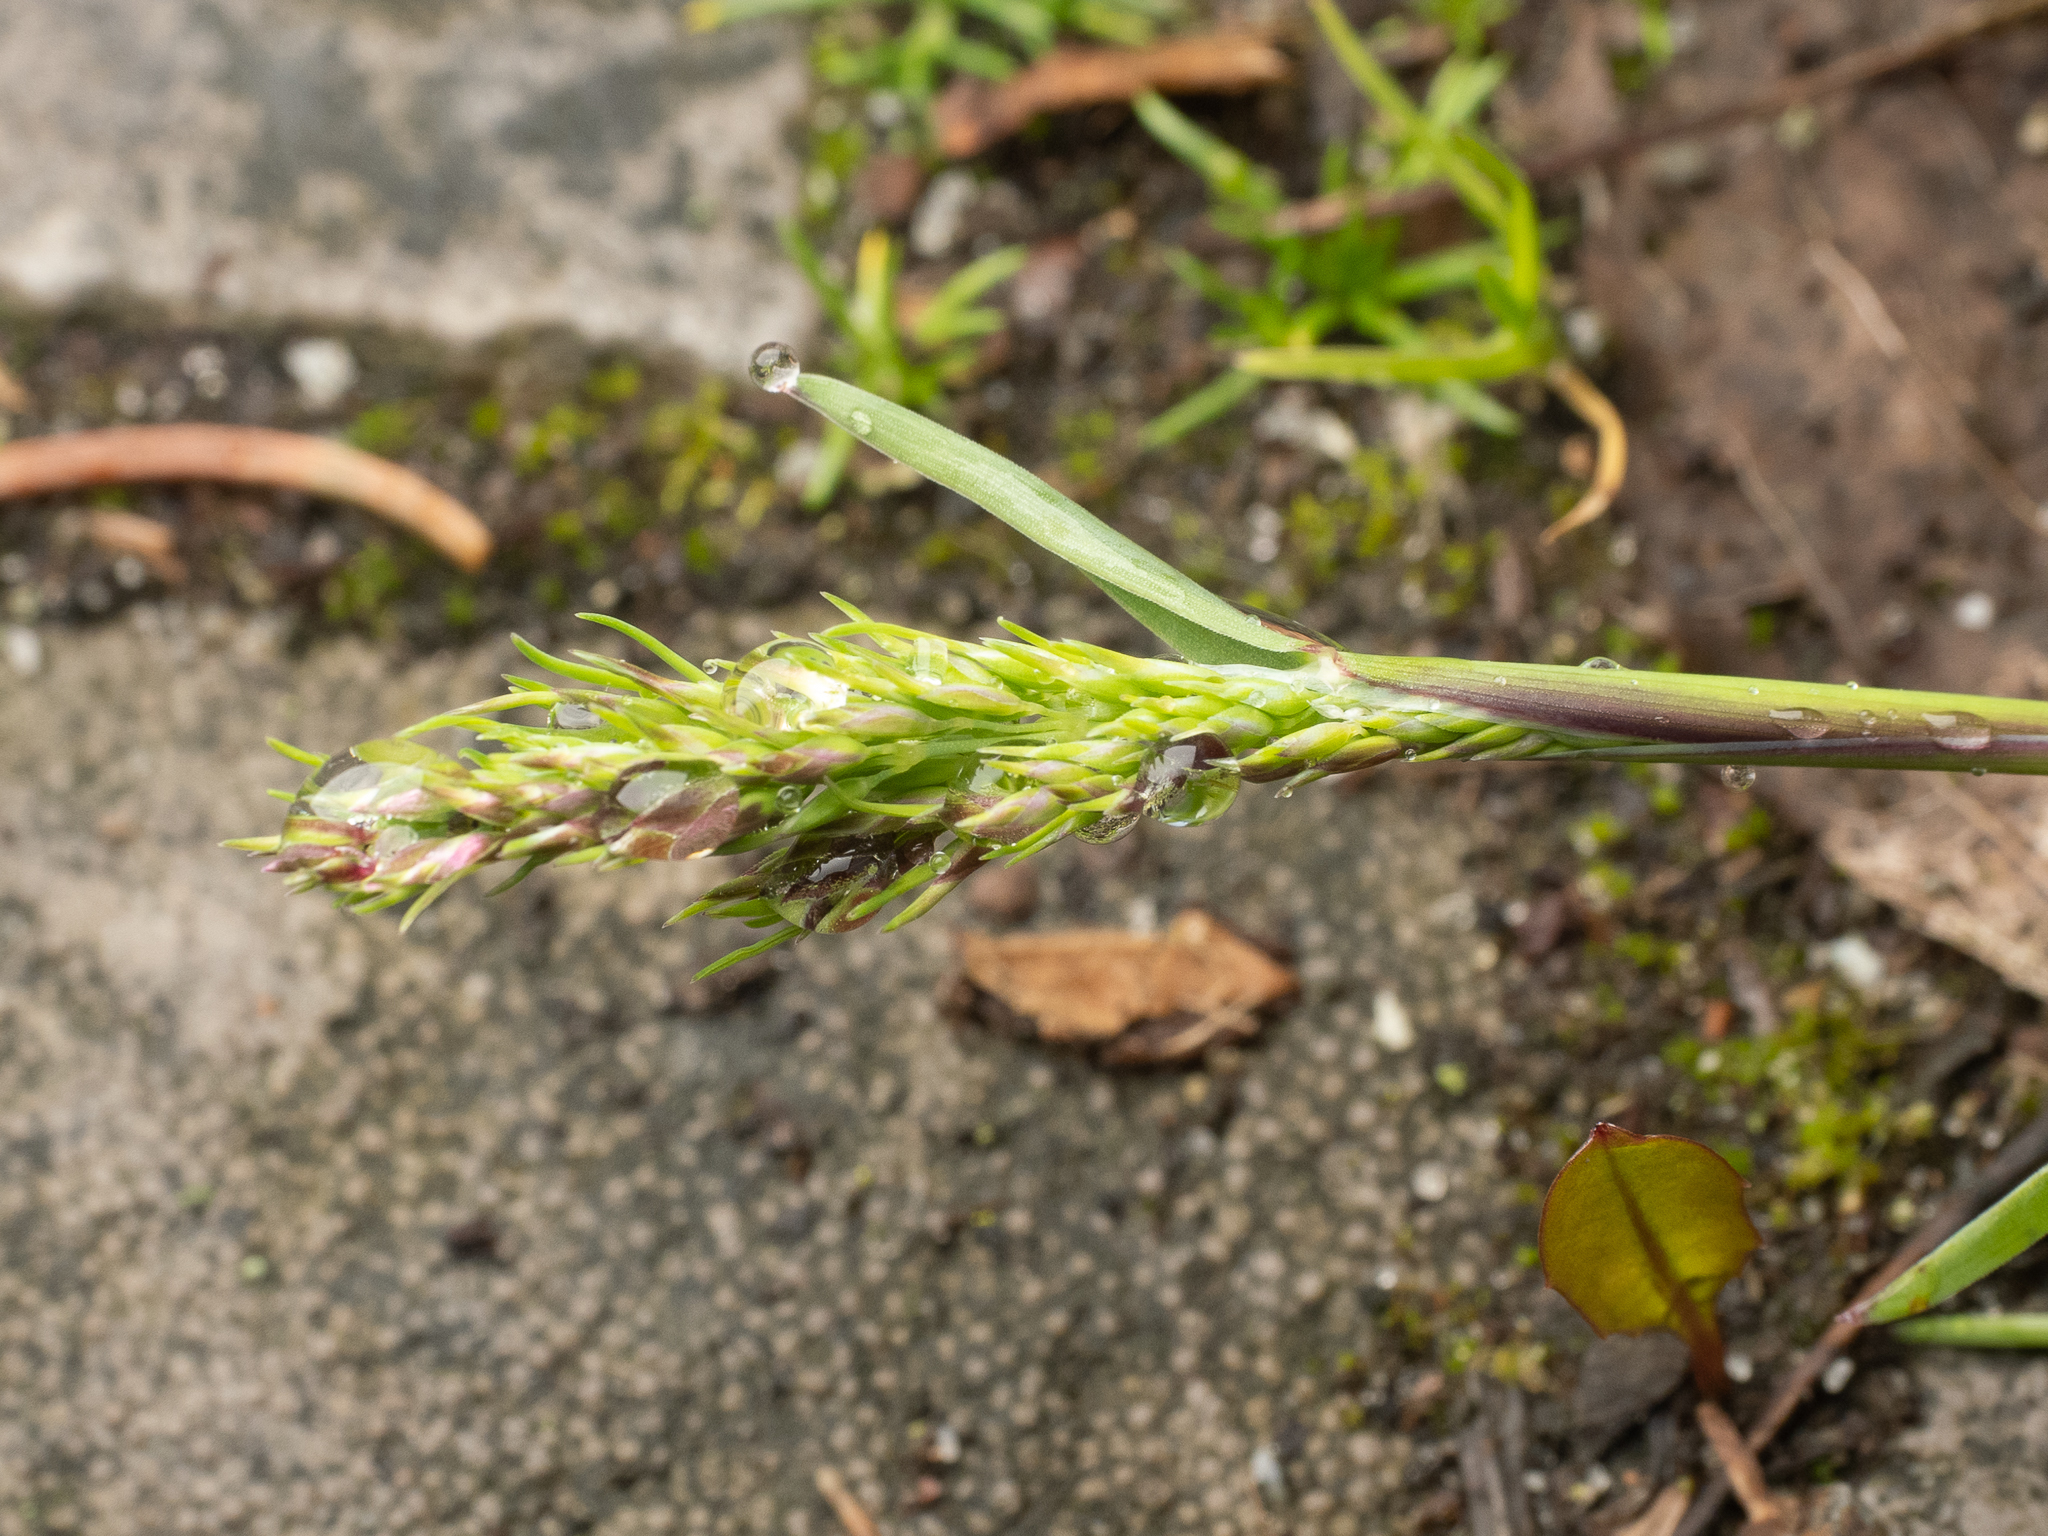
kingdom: Plantae
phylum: Tracheophyta
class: Liliopsida
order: Poales
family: Poaceae
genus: Poa
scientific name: Poa bulbosa
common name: Bulbous bluegrass
